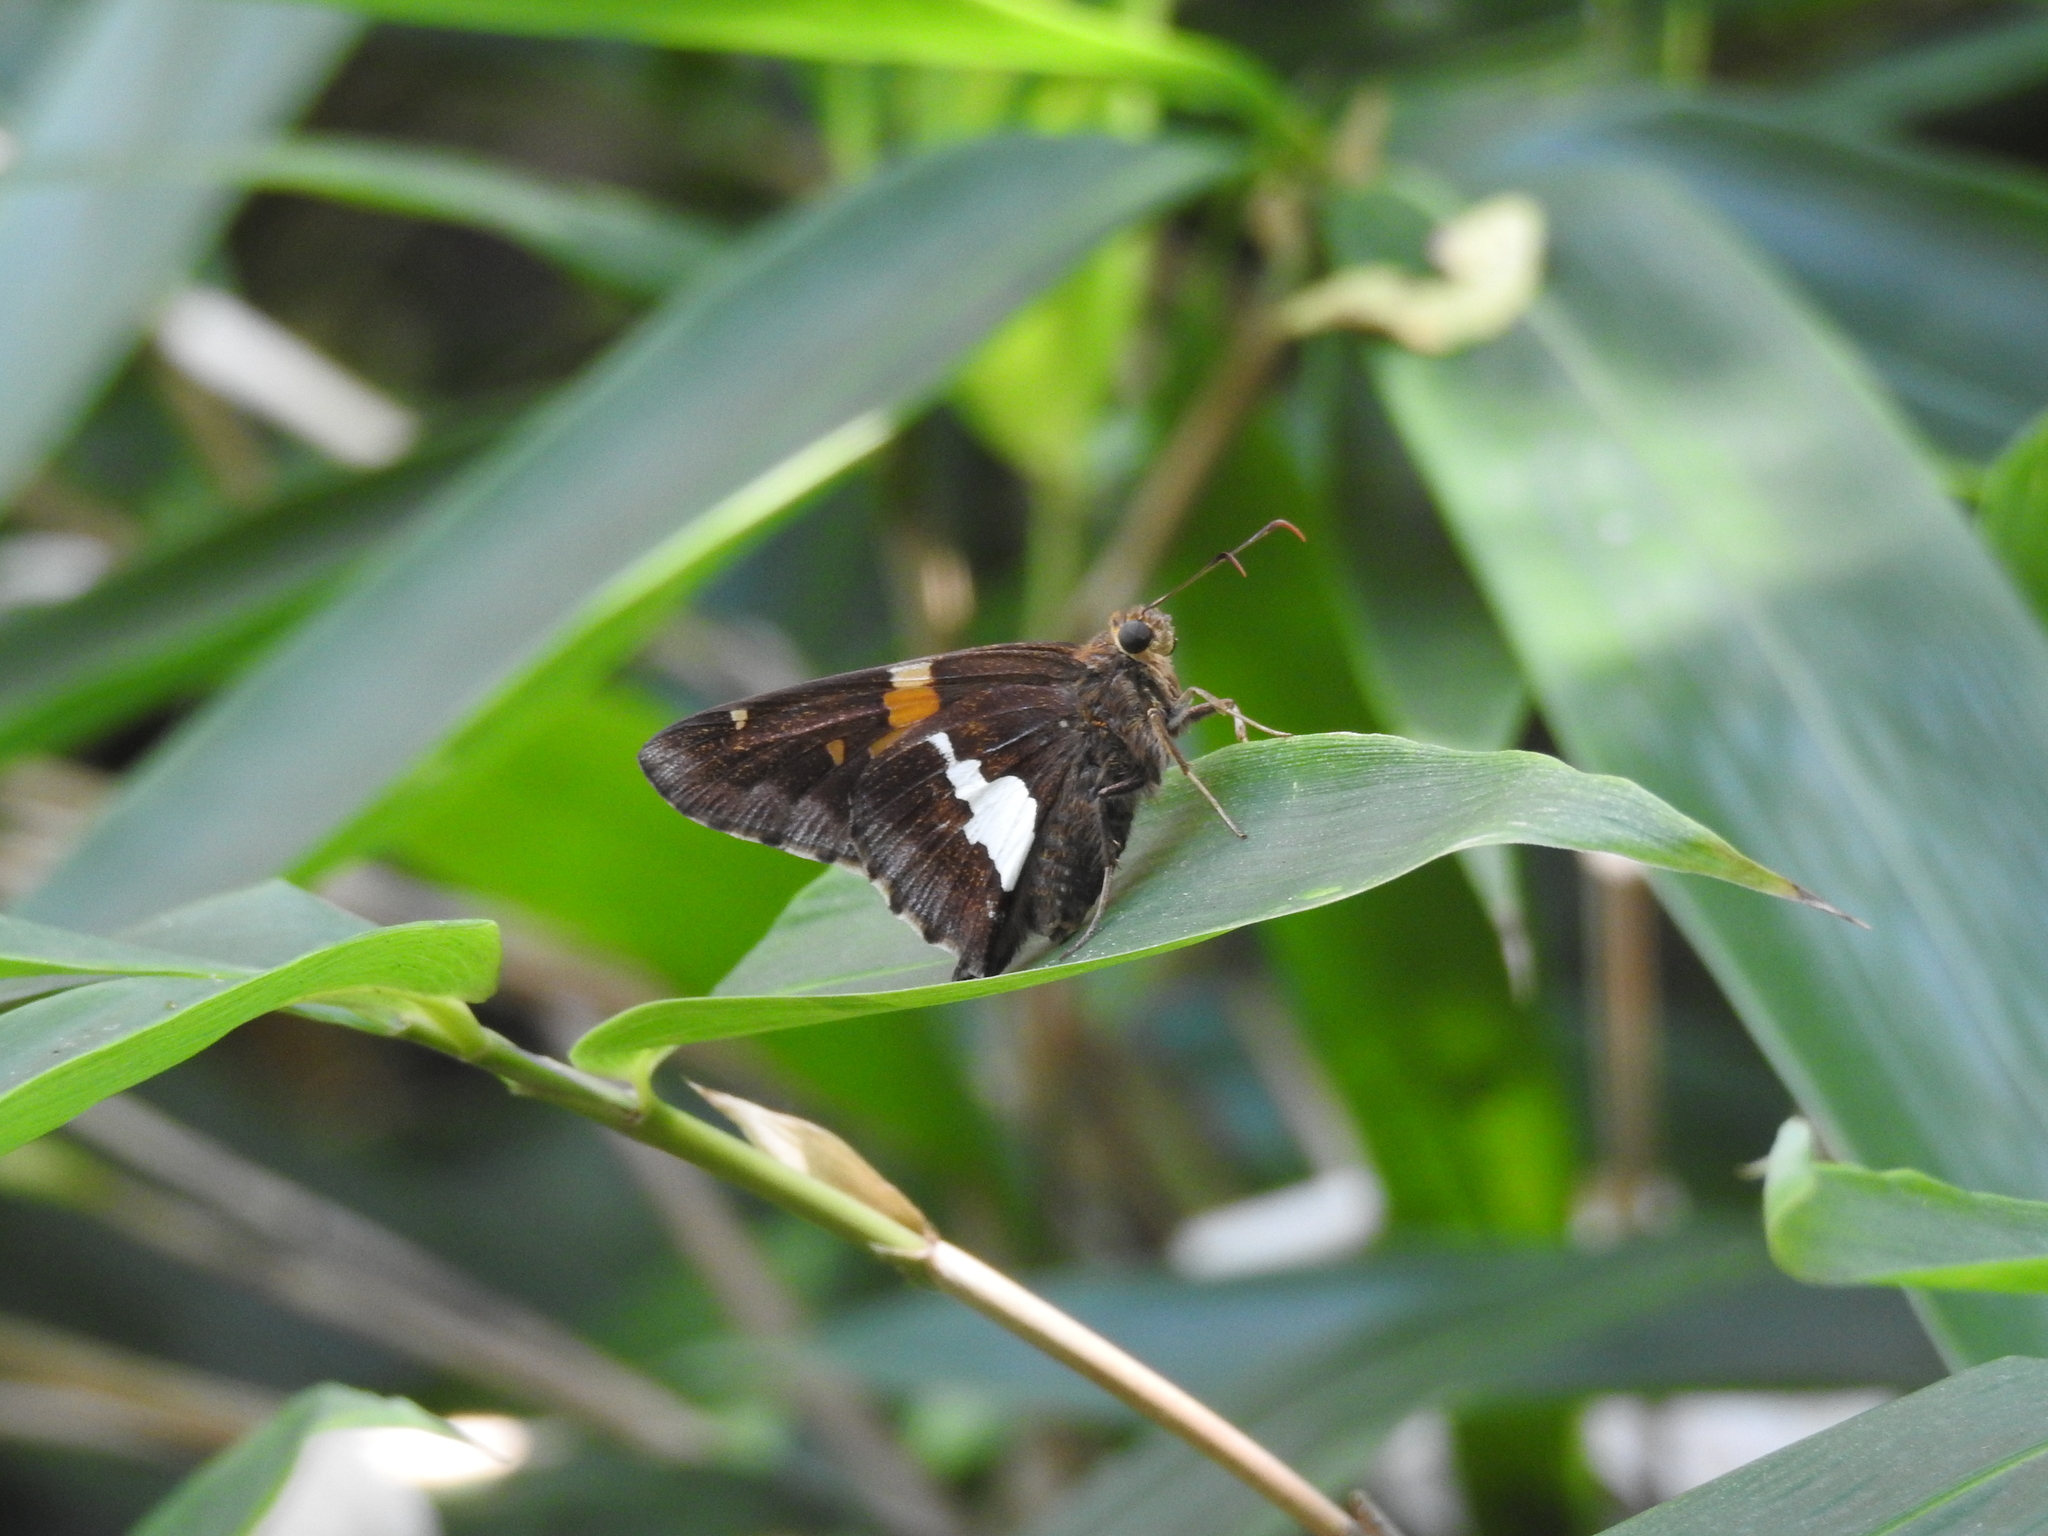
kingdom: Animalia
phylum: Arthropoda
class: Insecta
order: Lepidoptera
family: Hesperiidae
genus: Epargyreus
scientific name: Epargyreus clarus
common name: Silver-spotted skipper
